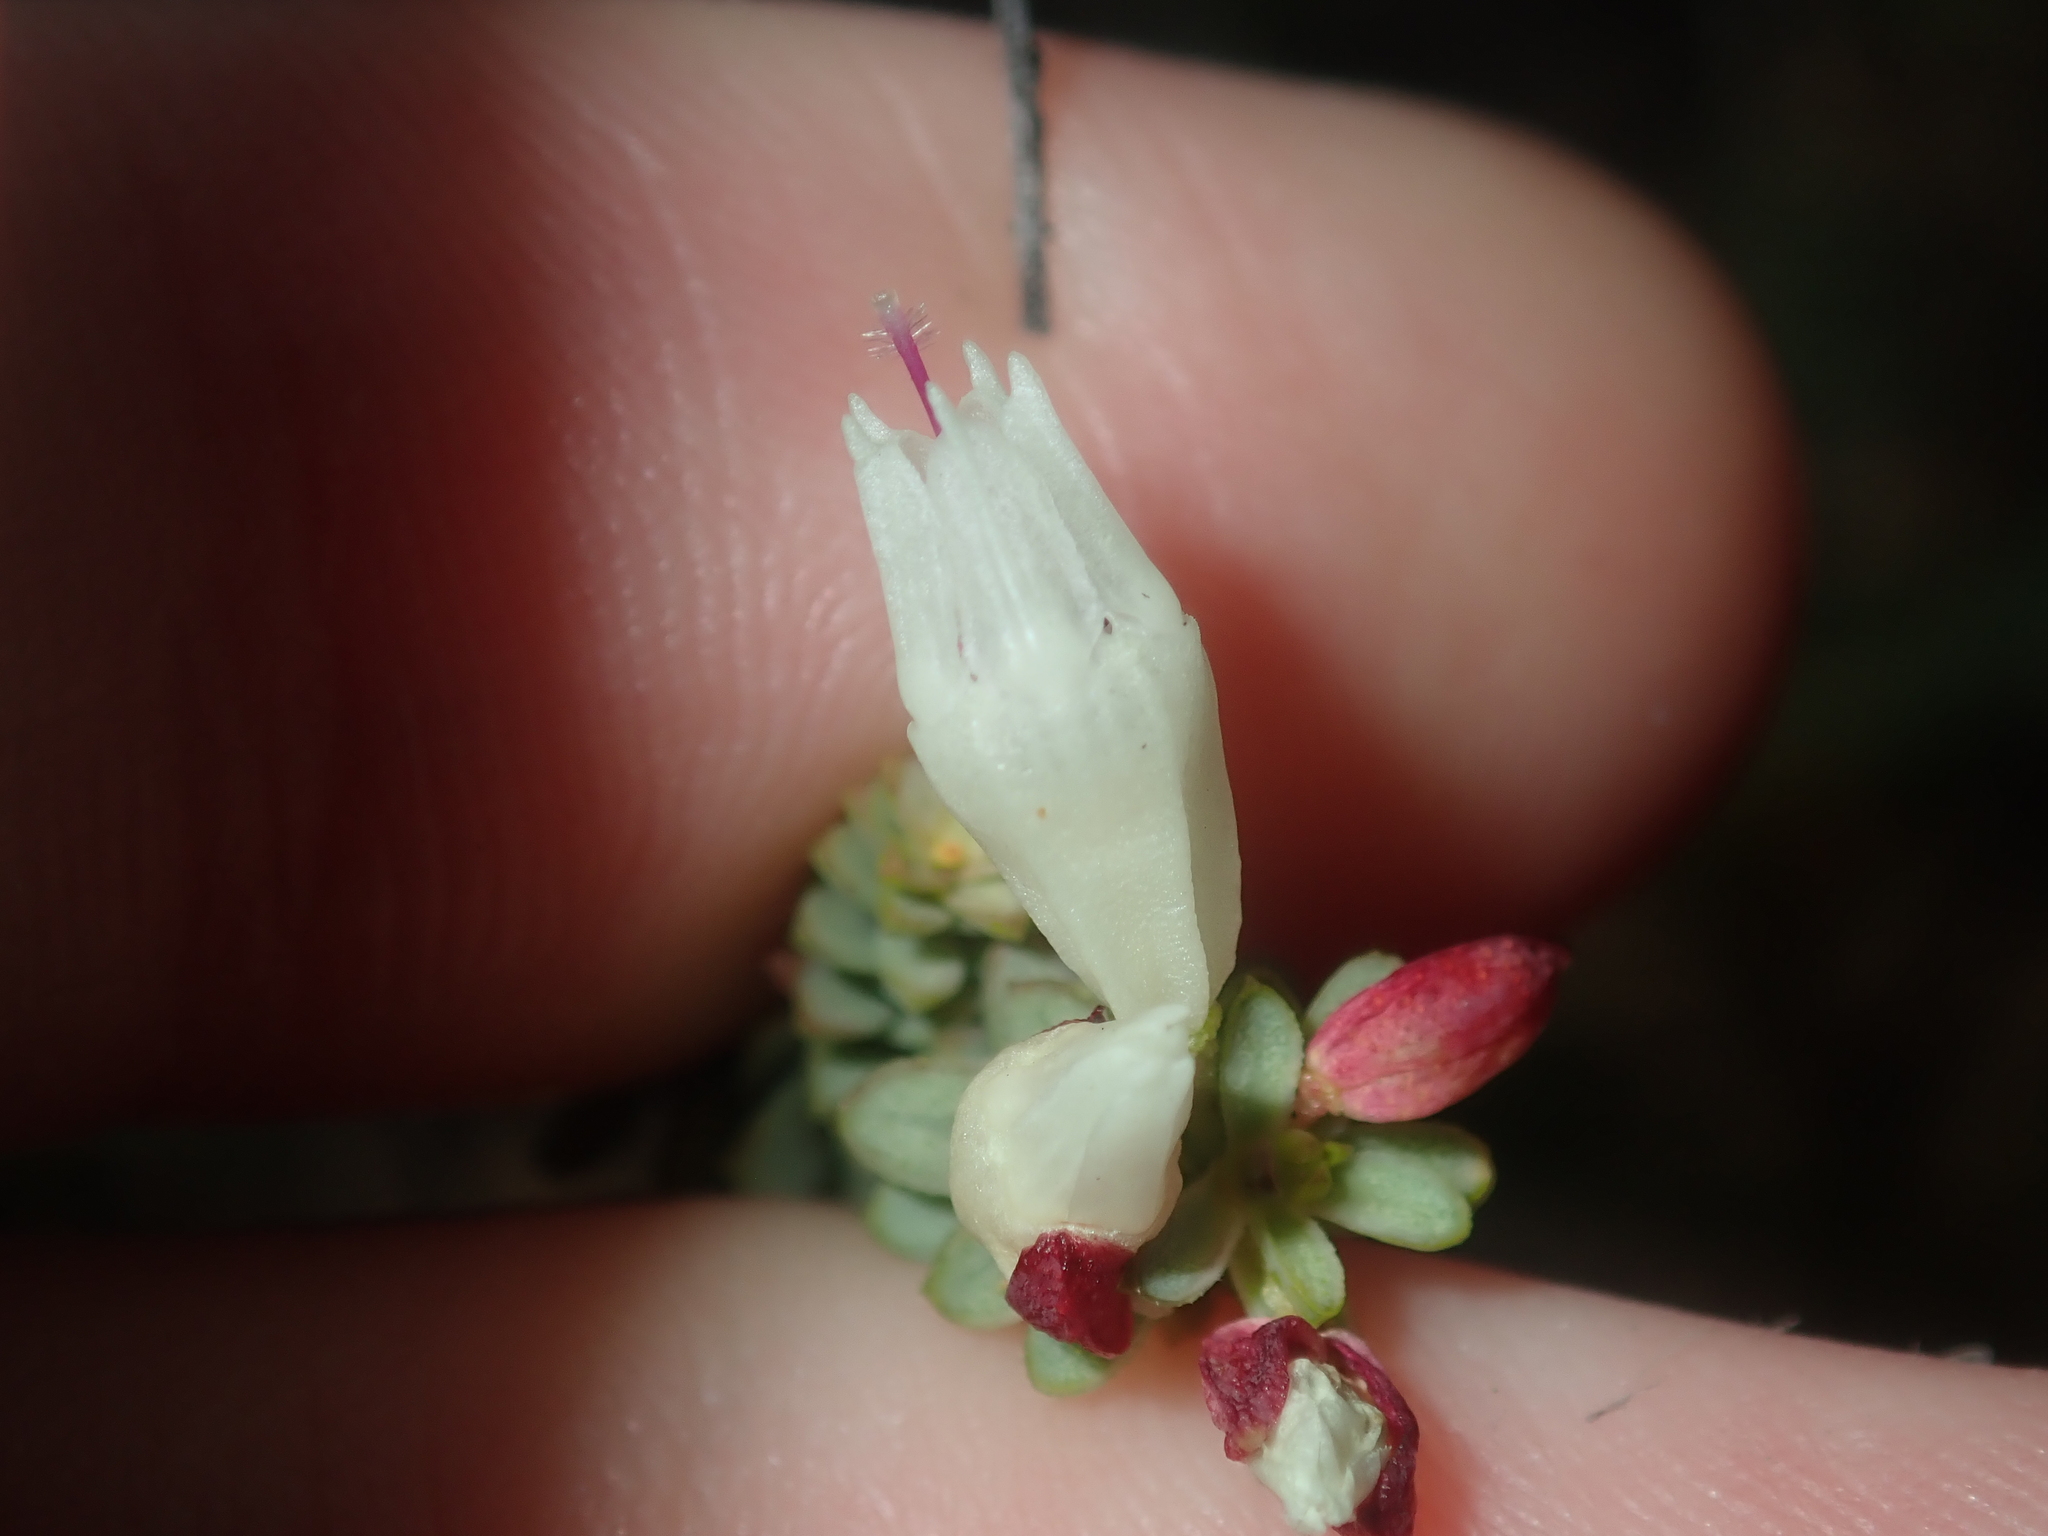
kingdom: Plantae
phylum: Tracheophyta
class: Magnoliopsida
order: Myrtales
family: Myrtaceae
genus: Darwinia
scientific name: Darwinia pauciflora
